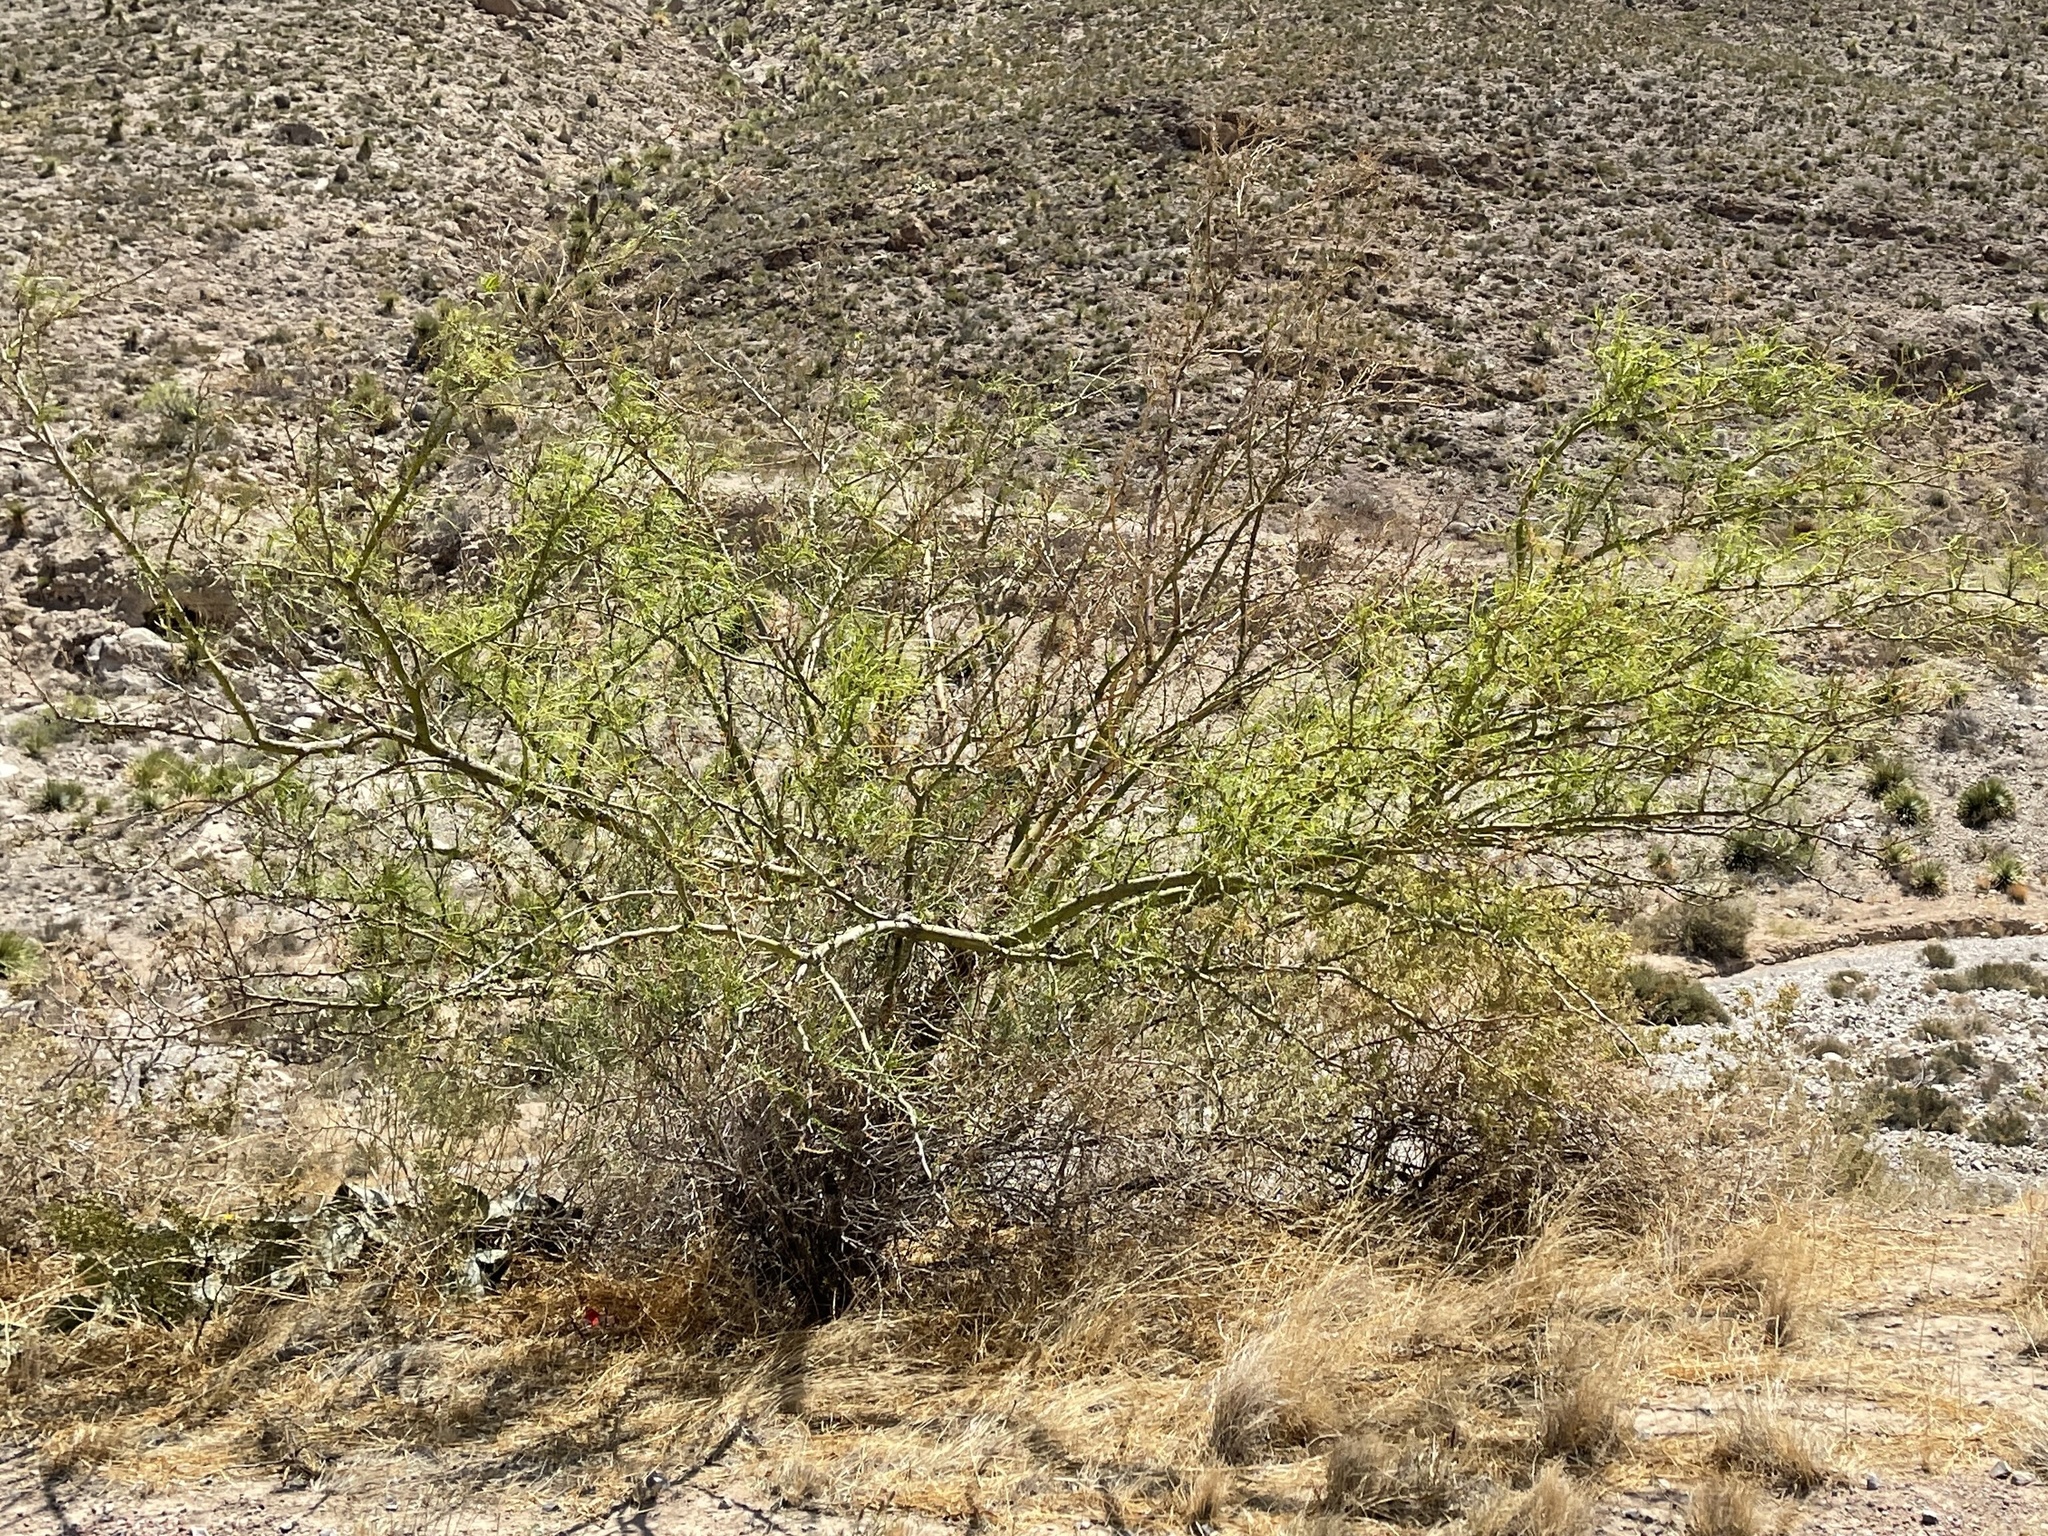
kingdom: Plantae
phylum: Tracheophyta
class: Magnoliopsida
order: Fabales
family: Fabaceae
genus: Parkinsonia
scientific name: Parkinsonia aculeata
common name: Jerusalem thorn
